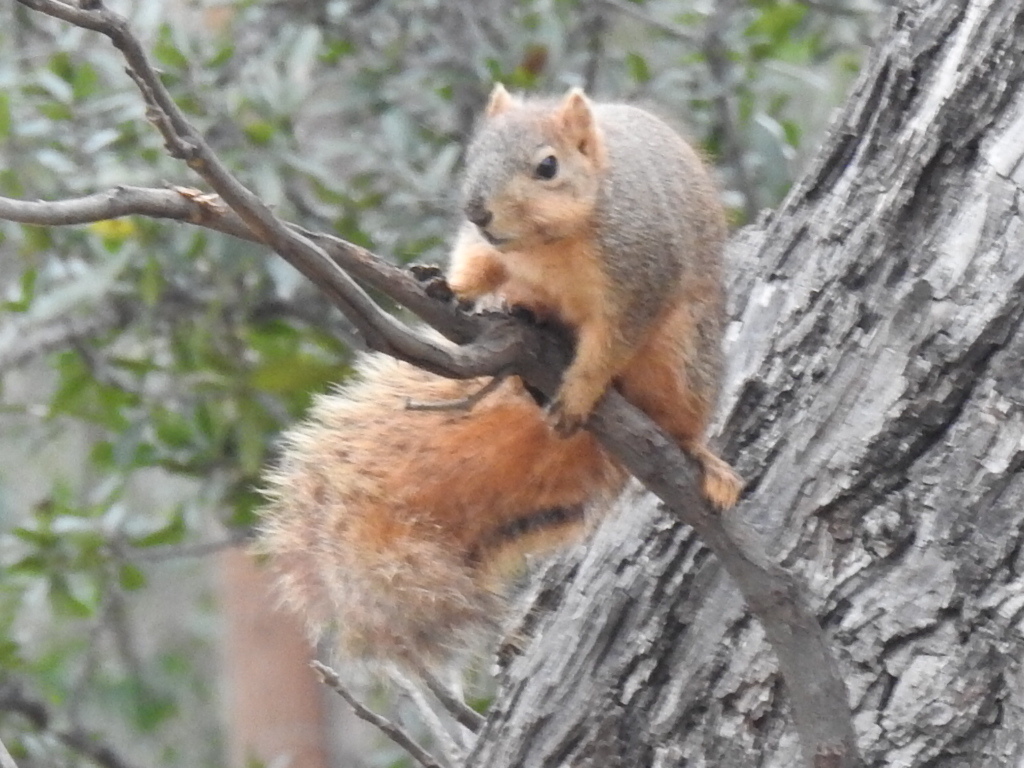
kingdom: Animalia
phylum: Chordata
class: Mammalia
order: Rodentia
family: Sciuridae
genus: Sciurus
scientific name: Sciurus niger
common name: Fox squirrel
